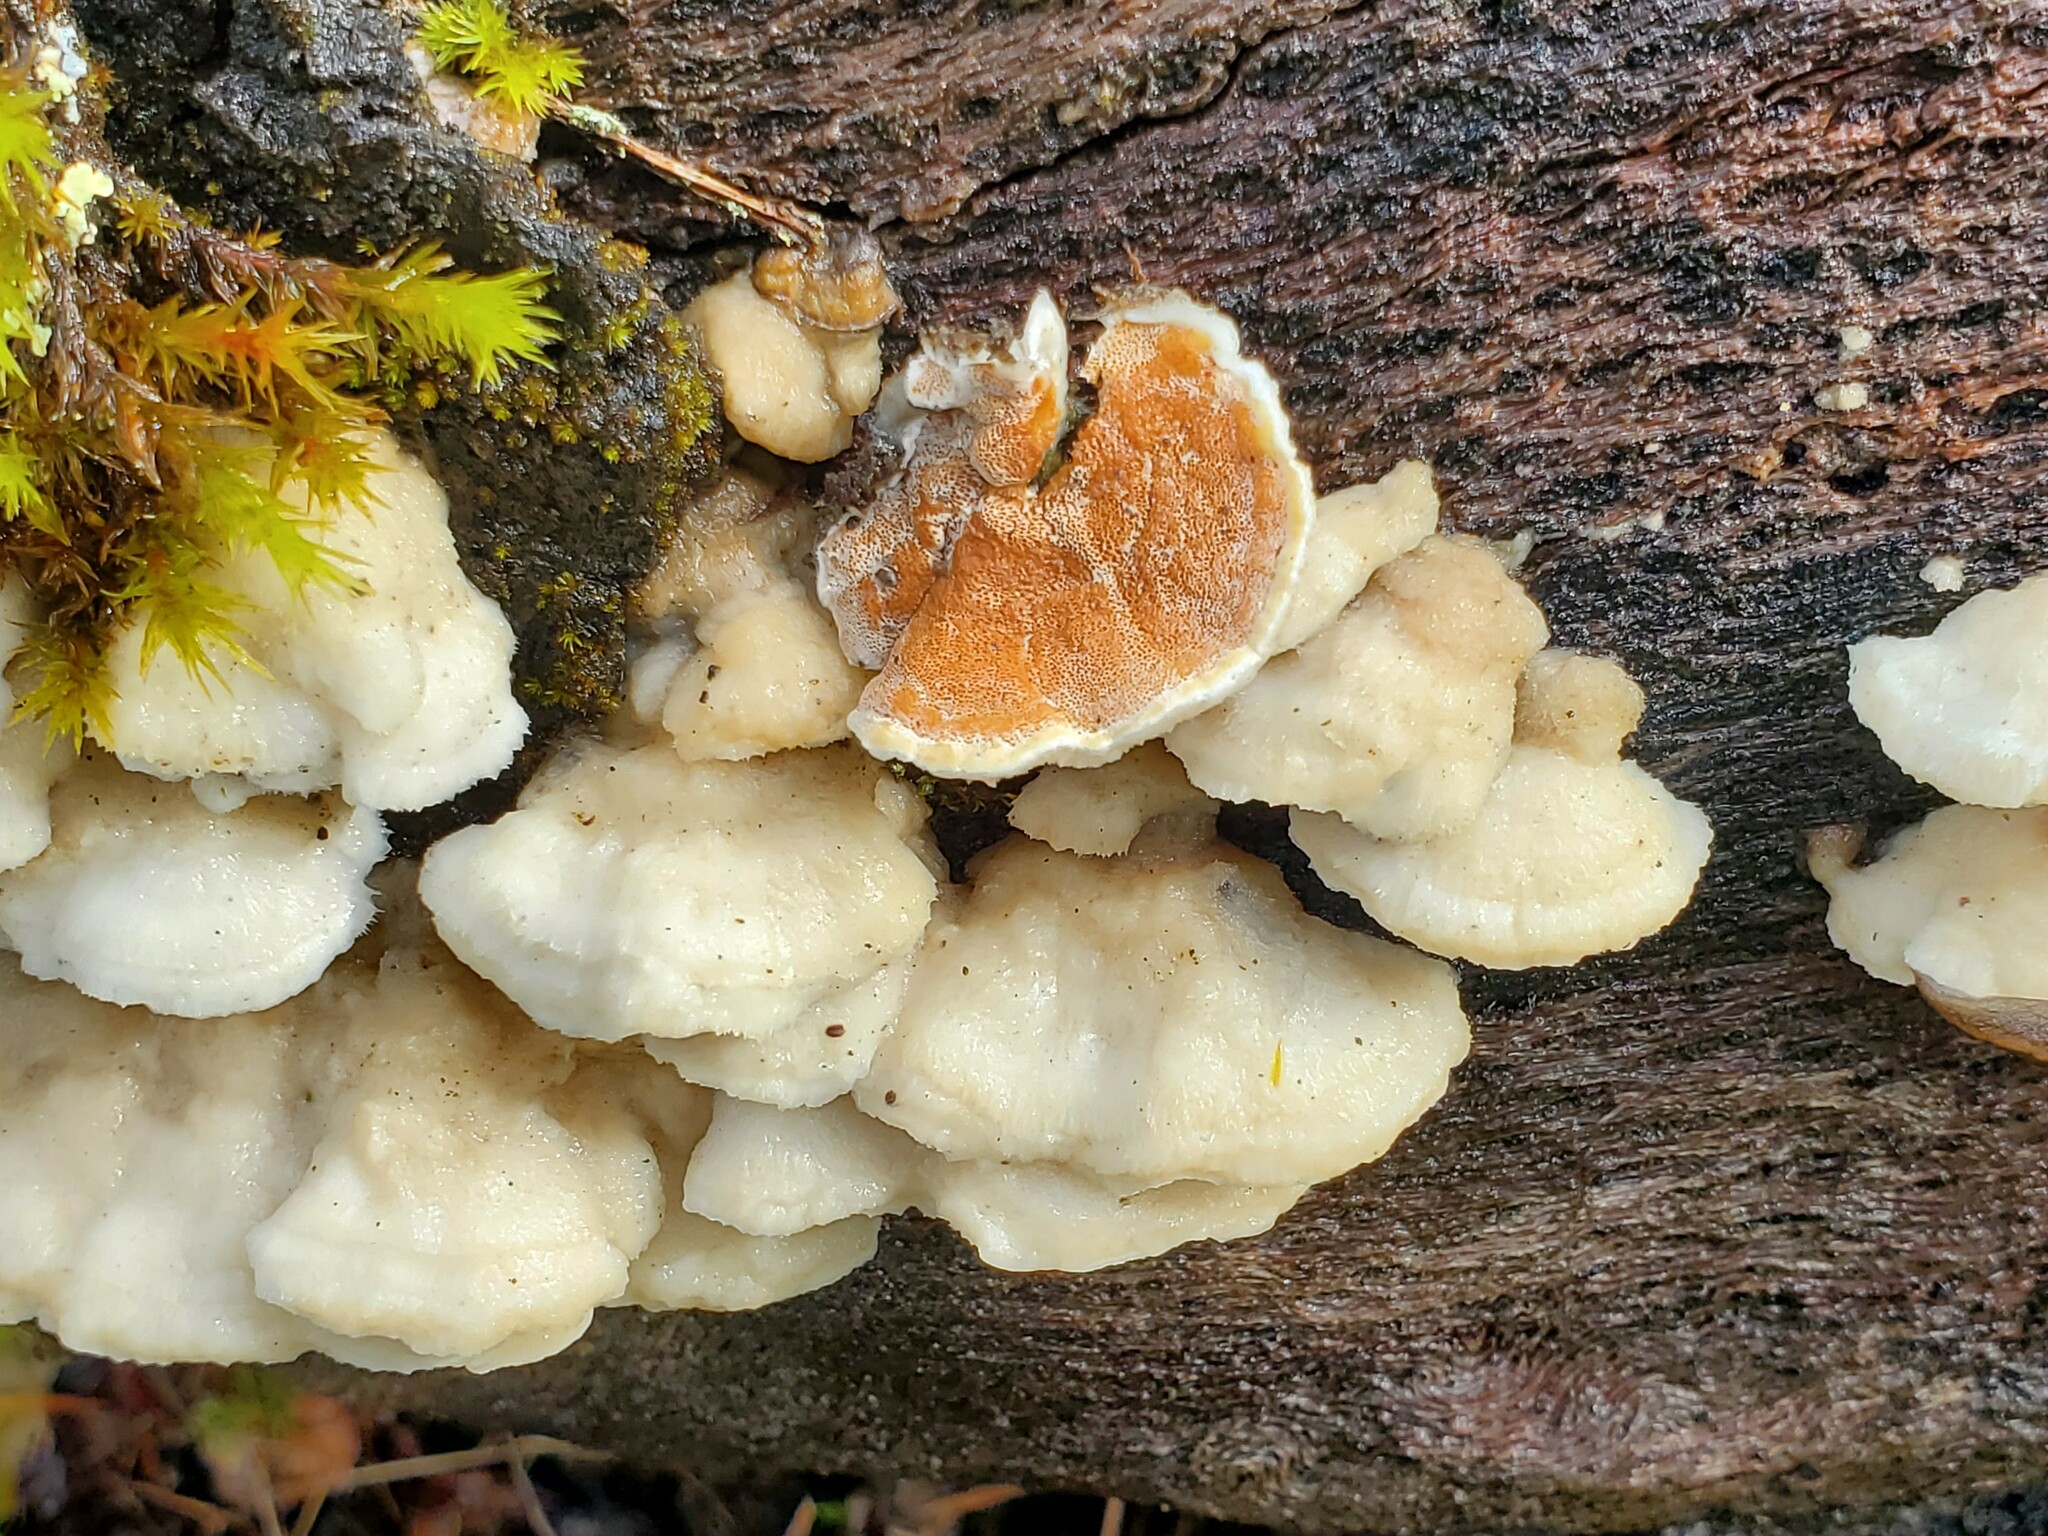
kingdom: Fungi
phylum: Basidiomycota
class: Agaricomycetes
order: Polyporales
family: Irpicaceae
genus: Vitreoporus
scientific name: Vitreoporus dichrous
